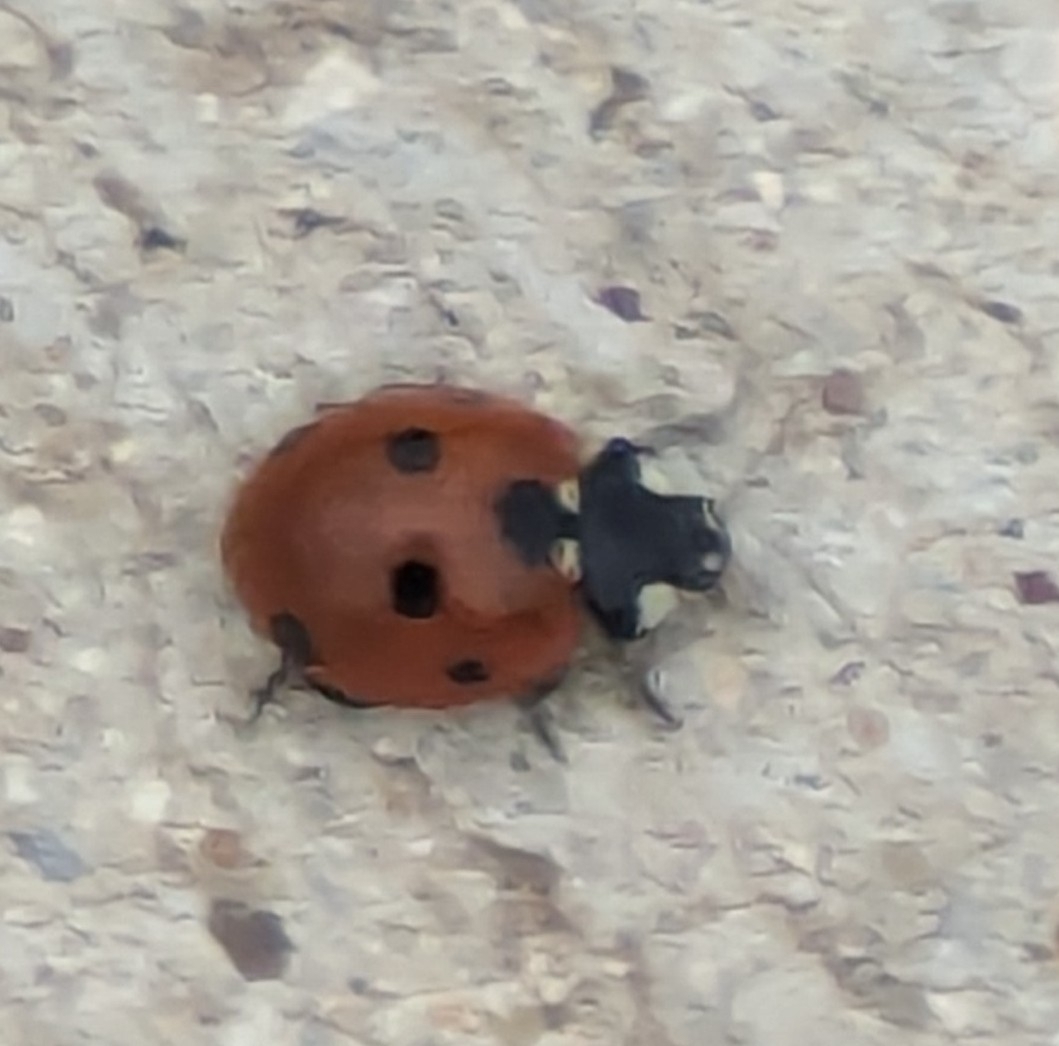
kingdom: Animalia
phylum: Arthropoda
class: Insecta
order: Coleoptera
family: Coccinellidae
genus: Coccinella
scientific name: Coccinella septempunctata
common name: Sevenspotted lady beetle
